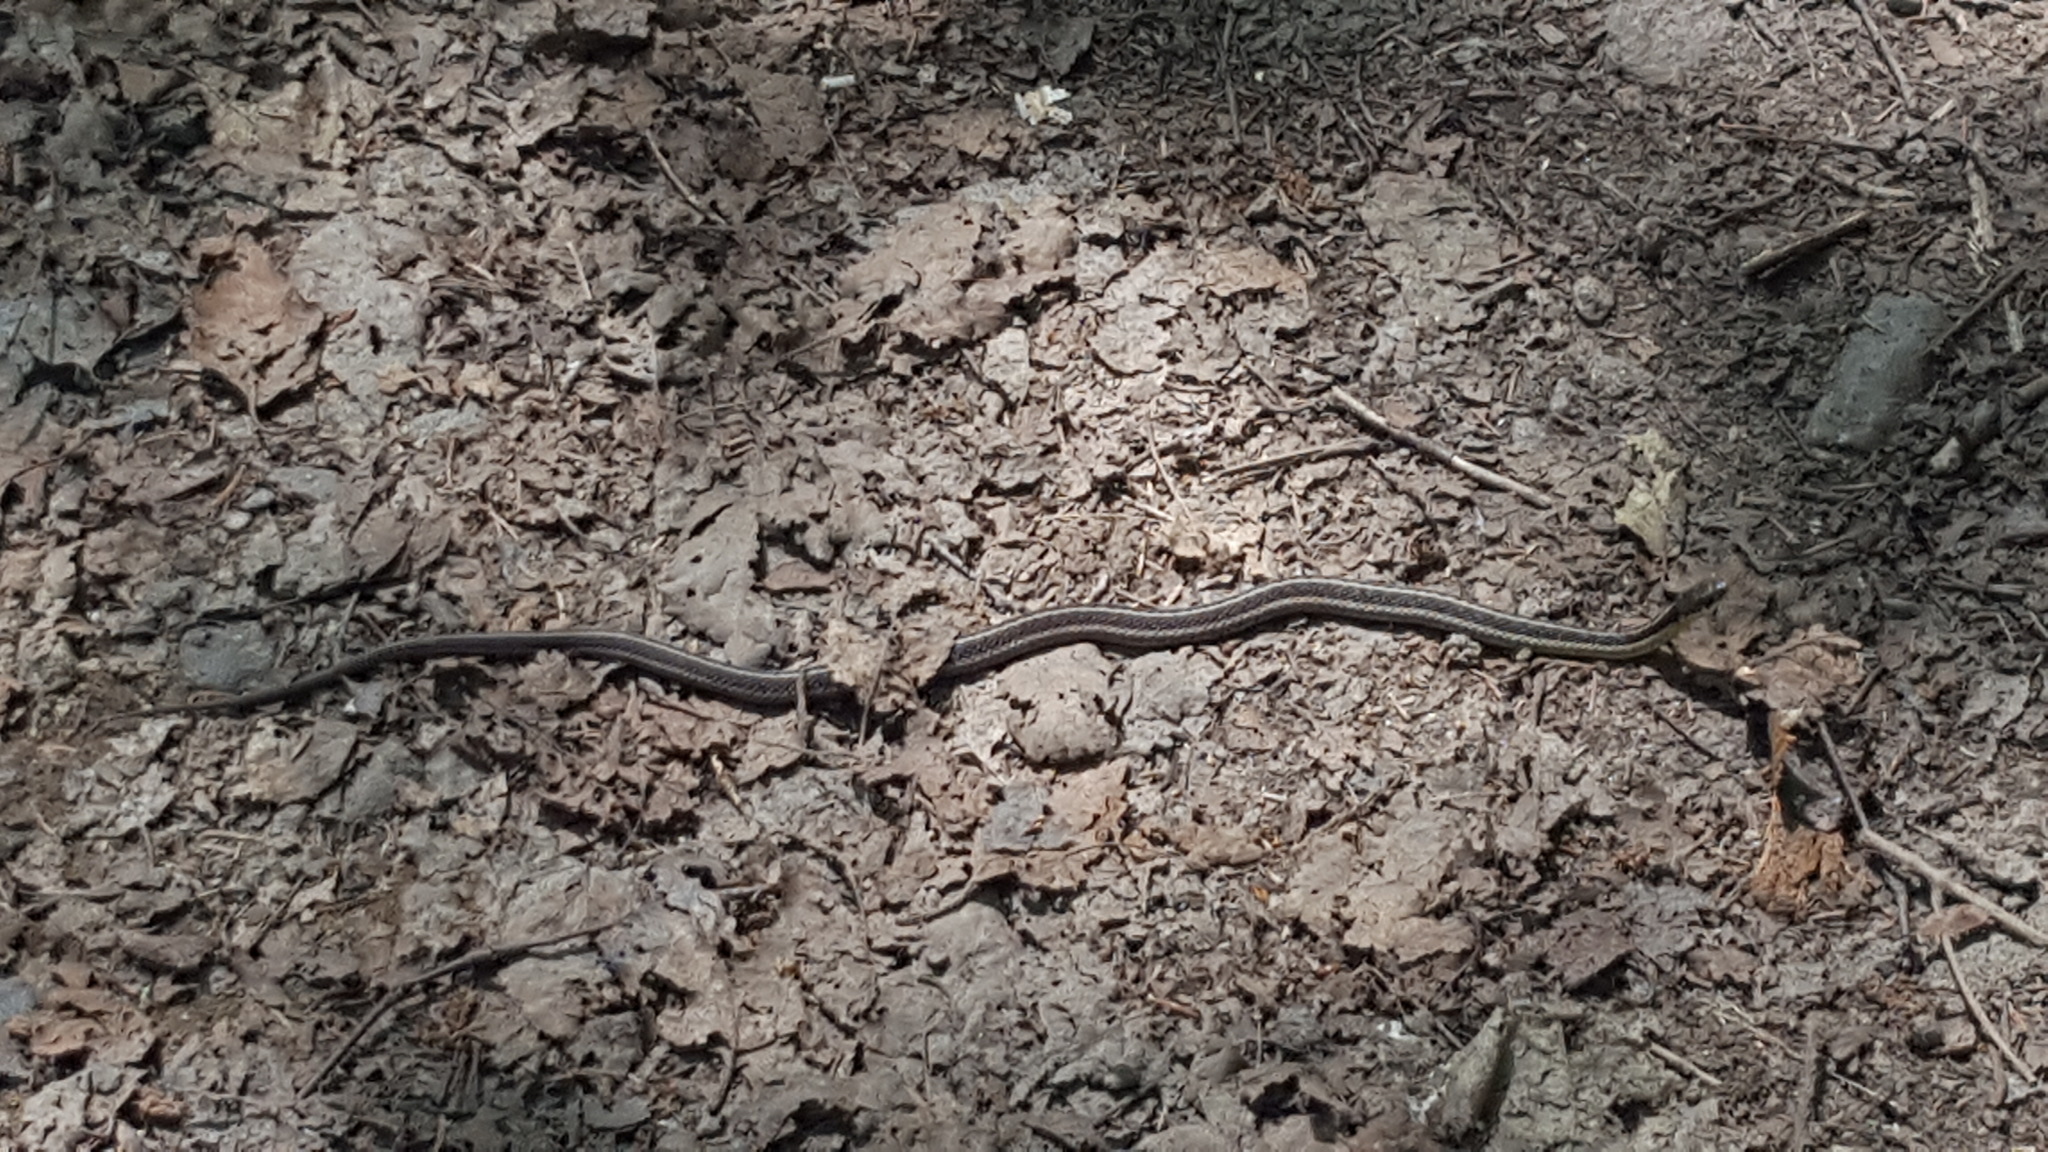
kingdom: Animalia
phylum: Chordata
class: Squamata
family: Colubridae
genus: Thamnophis
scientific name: Thamnophis sirtalis
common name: Common garter snake
